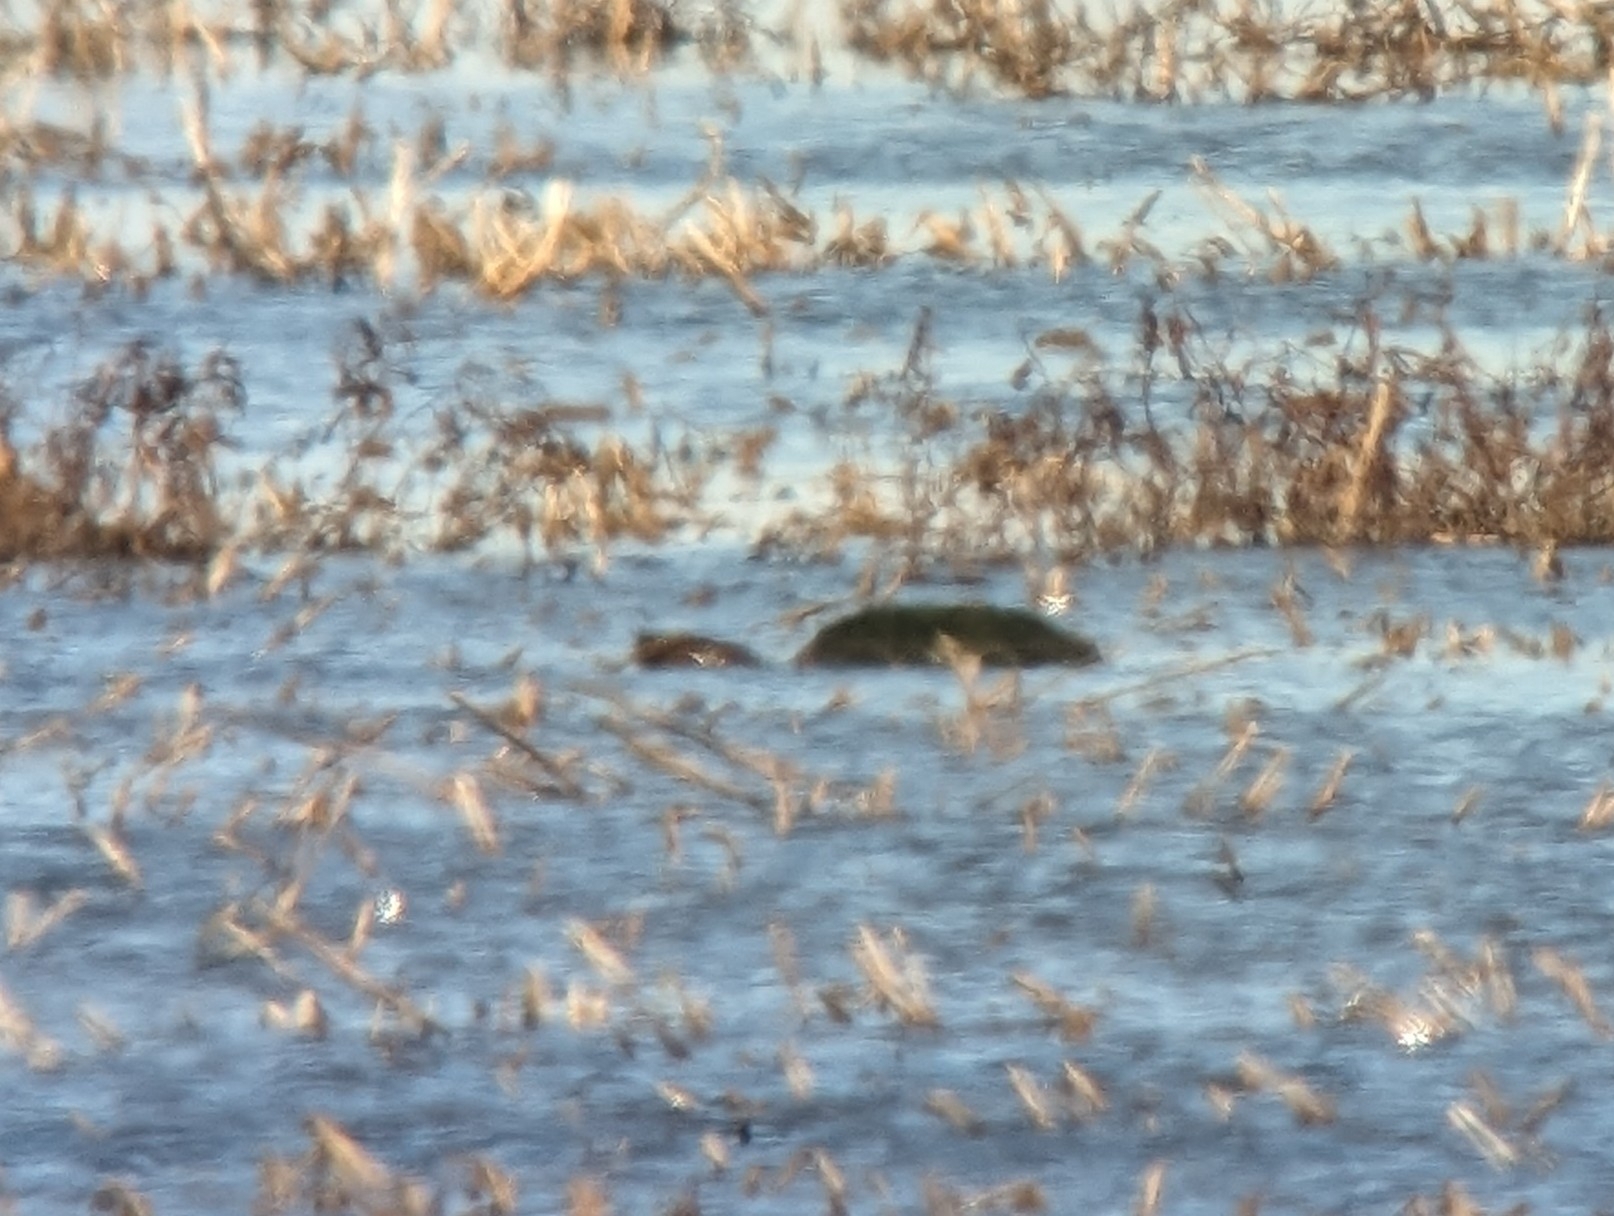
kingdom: Animalia
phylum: Chordata
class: Testudines
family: Chelydridae
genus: Chelydra
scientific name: Chelydra serpentina
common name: Common snapping turtle
